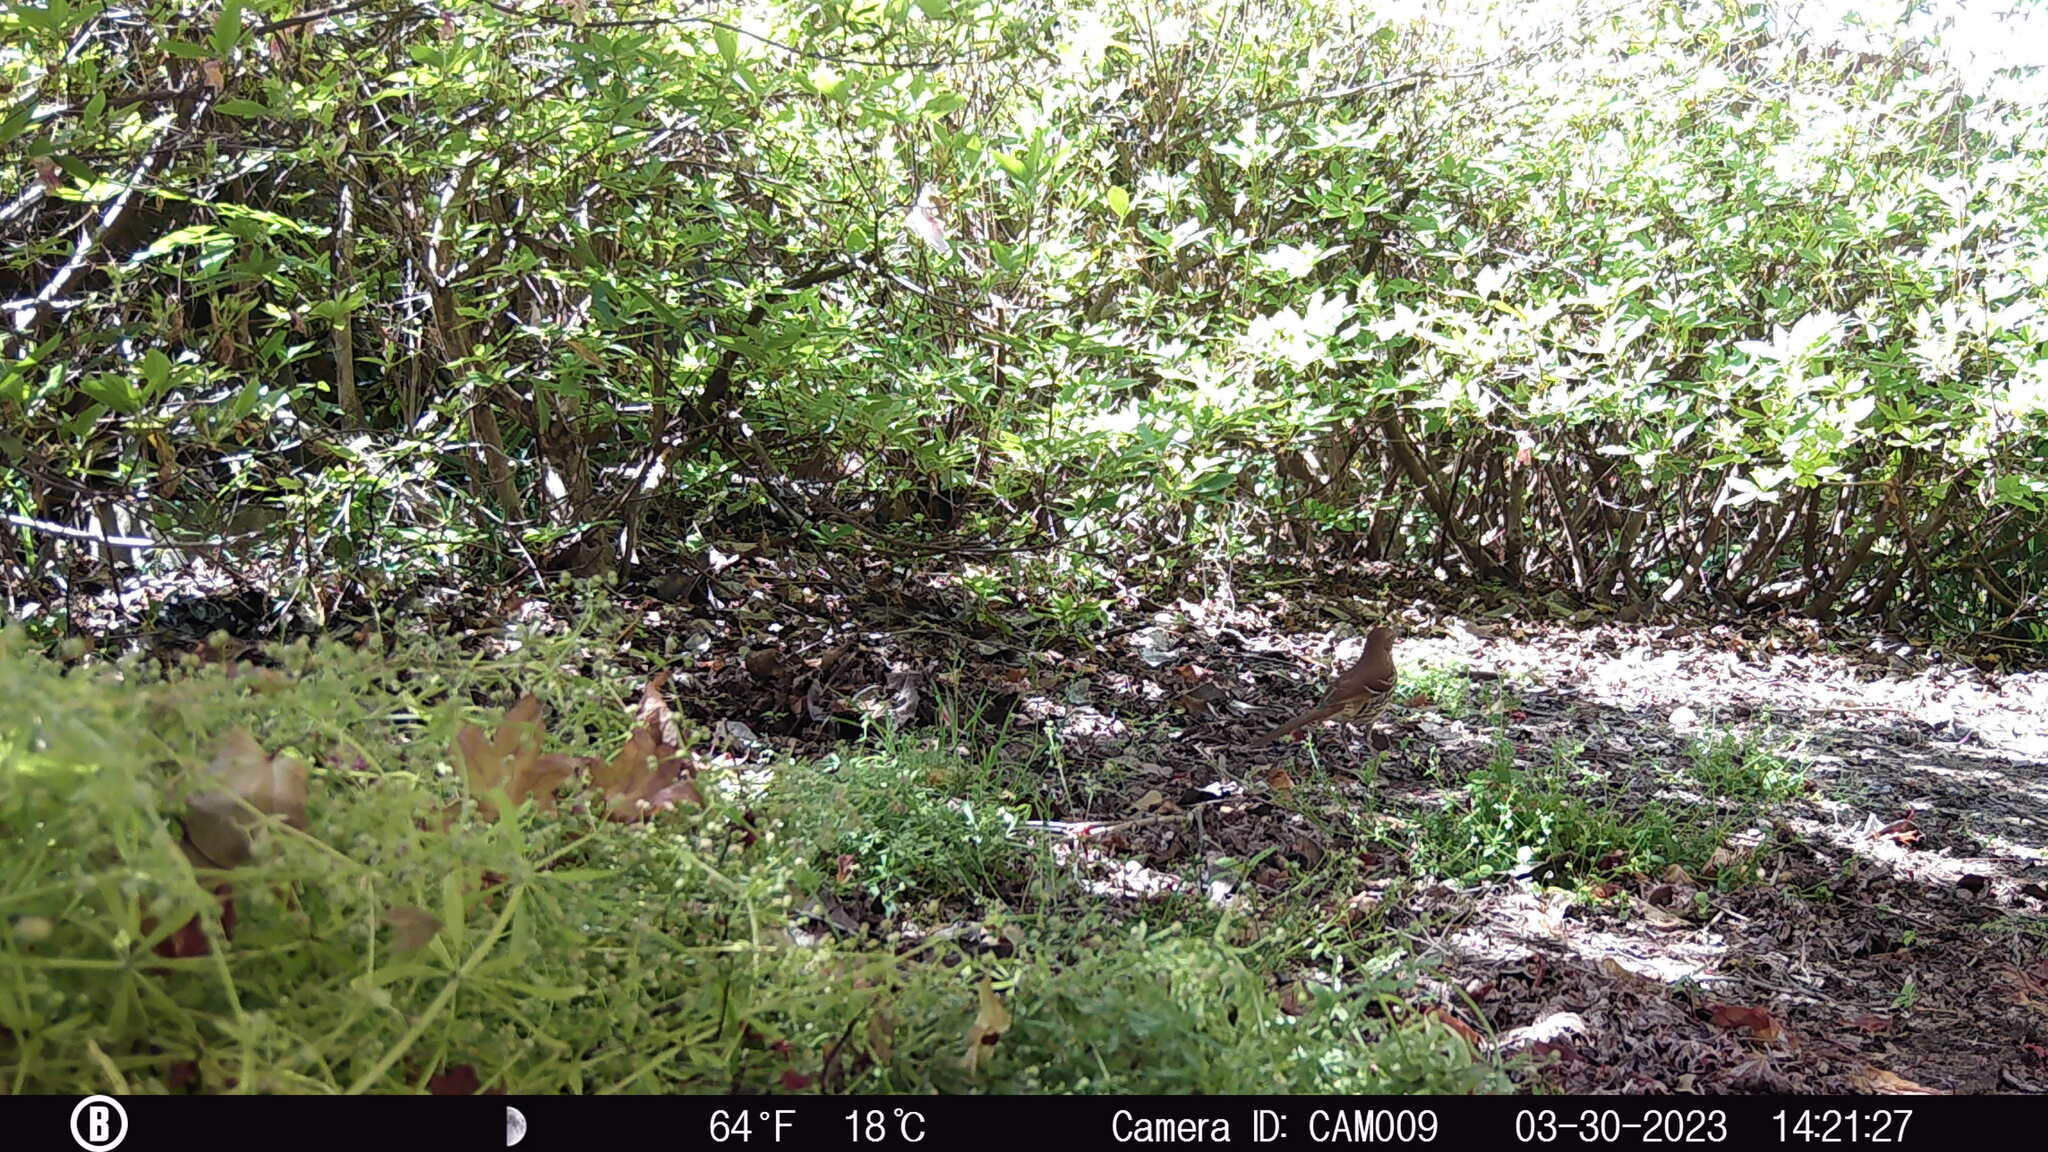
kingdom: Animalia
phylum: Chordata
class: Aves
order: Passeriformes
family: Mimidae
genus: Toxostoma
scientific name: Toxostoma rufum
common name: Brown thrasher
